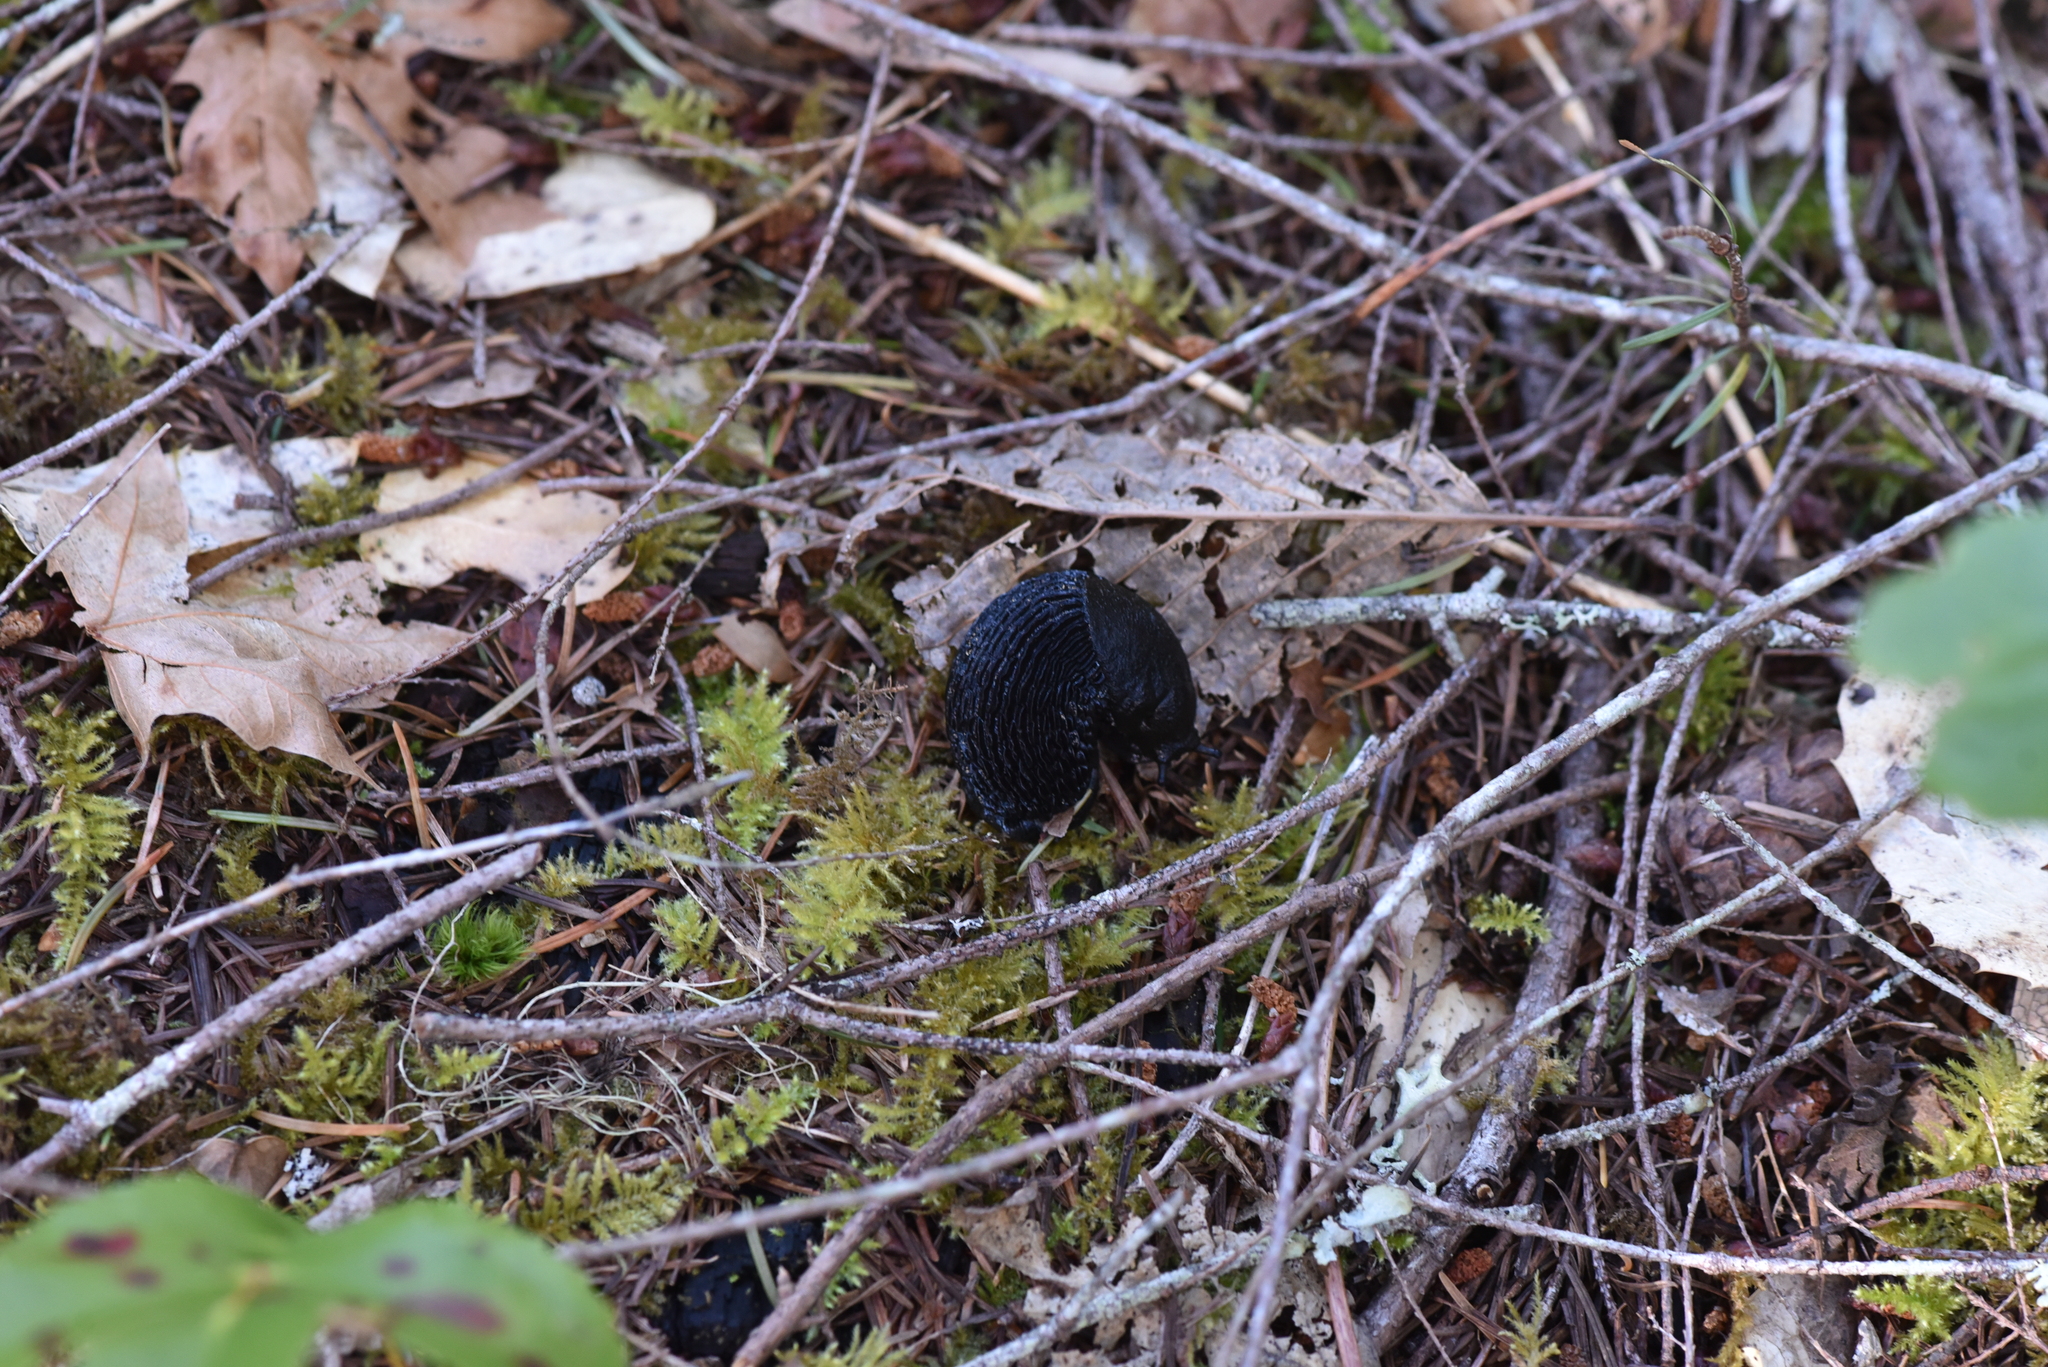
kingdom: Animalia
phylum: Mollusca
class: Gastropoda
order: Stylommatophora
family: Arionidae
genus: Arion
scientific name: Arion
